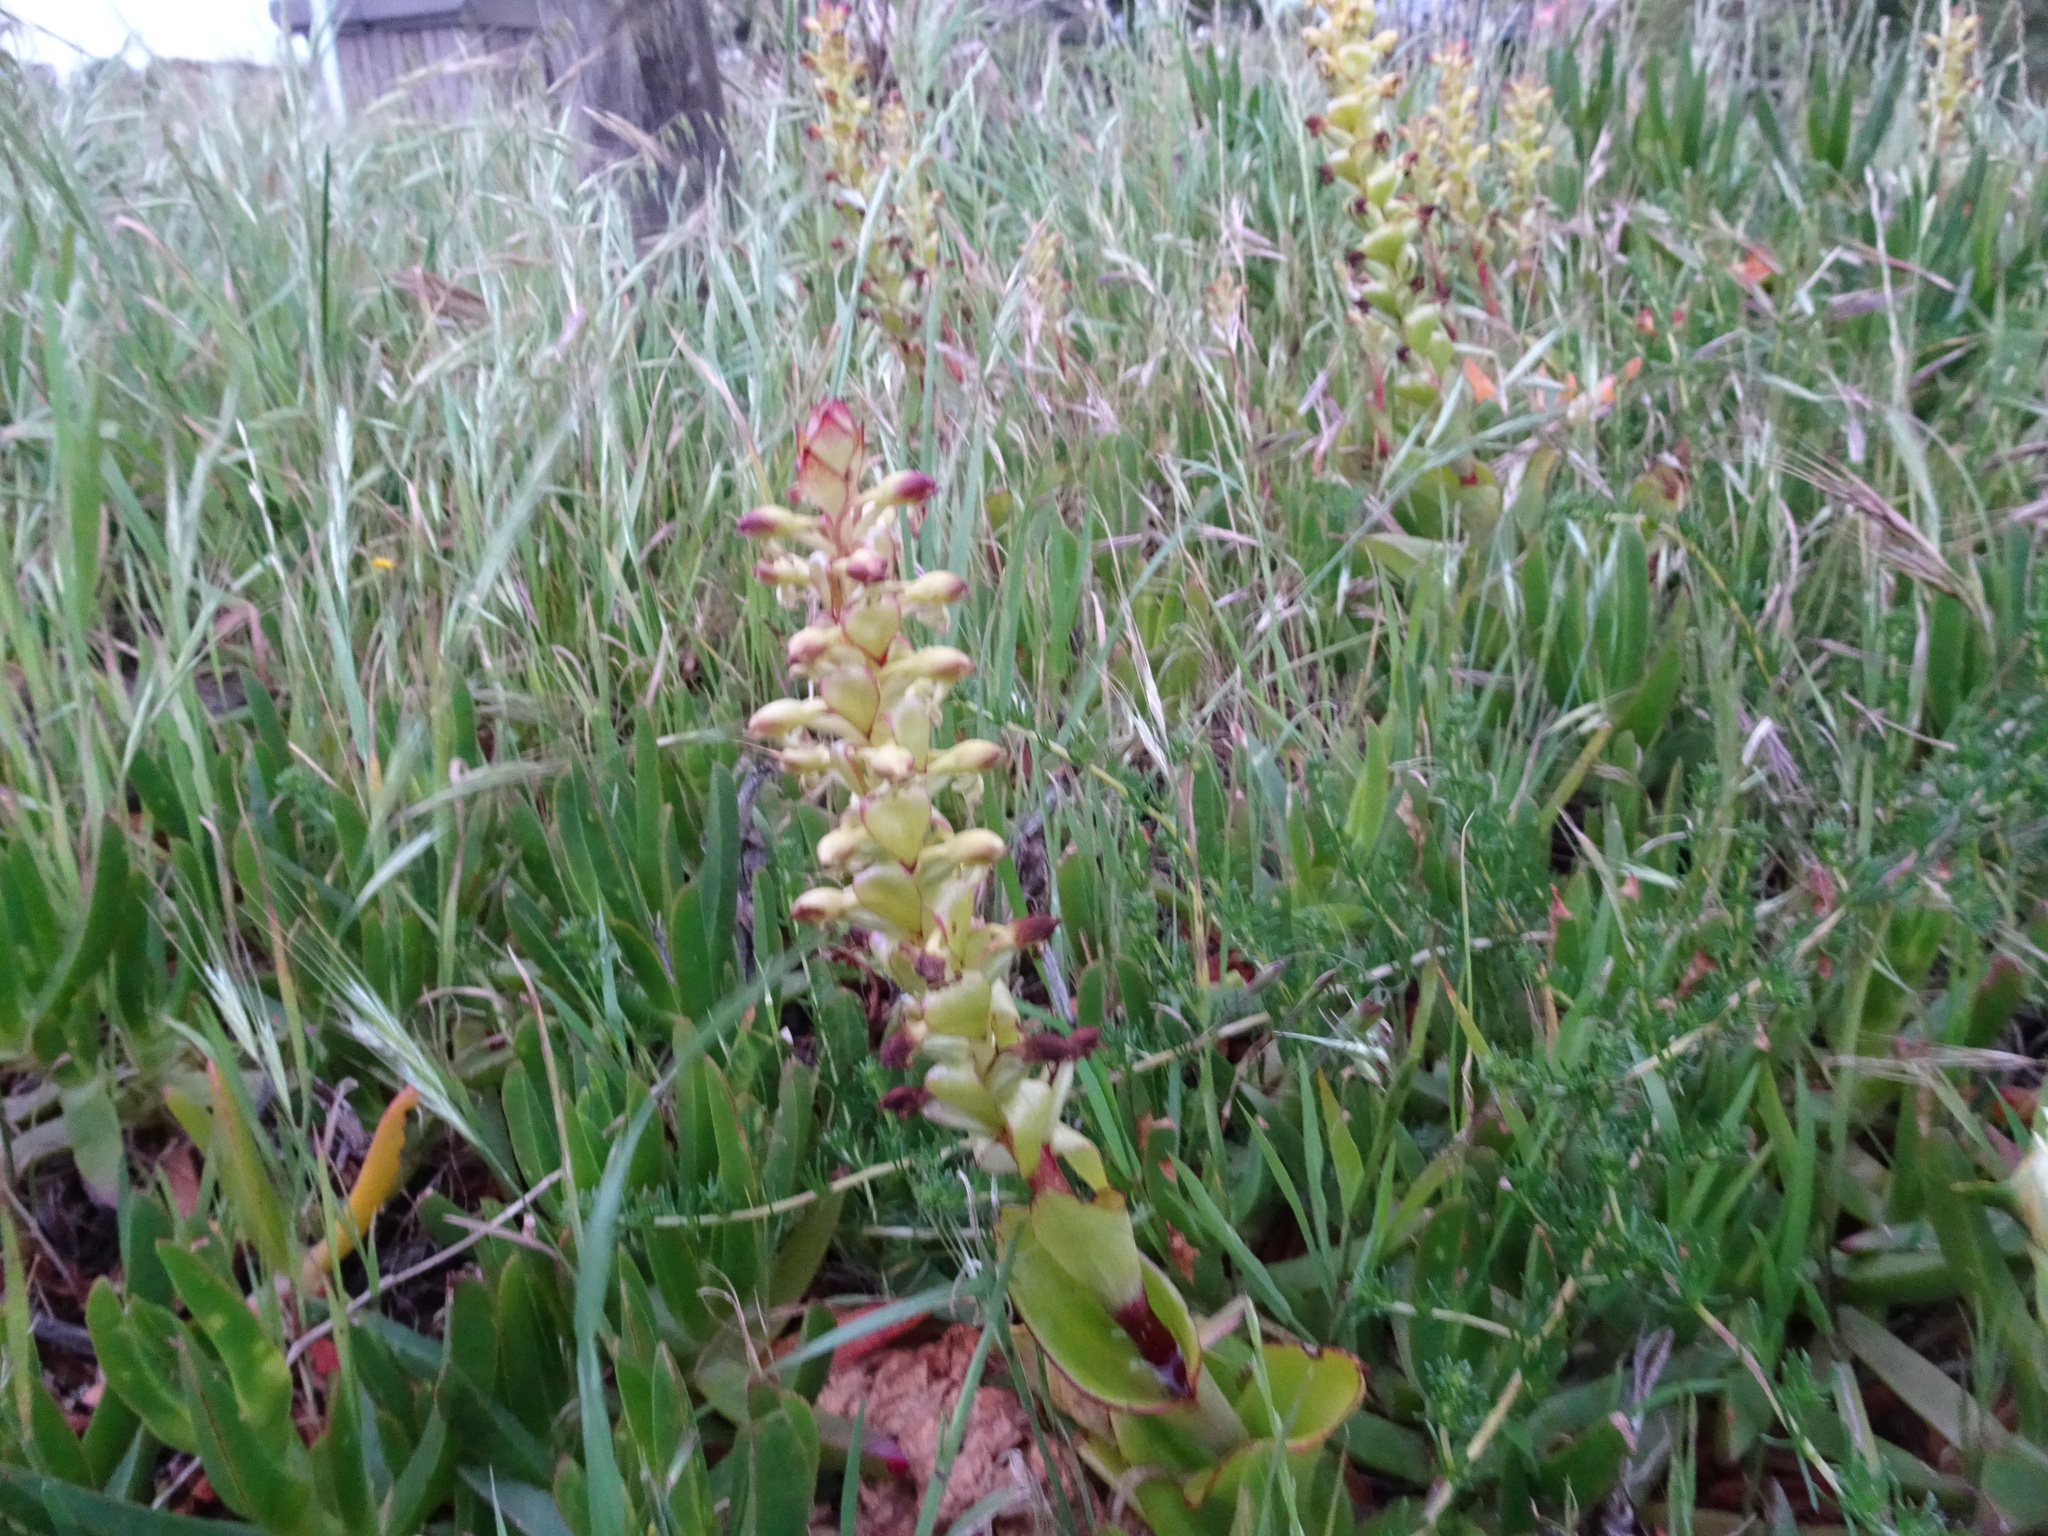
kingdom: Plantae
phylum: Tracheophyta
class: Liliopsida
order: Asparagales
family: Orchidaceae
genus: Satyrium
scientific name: Satyrium odorum
